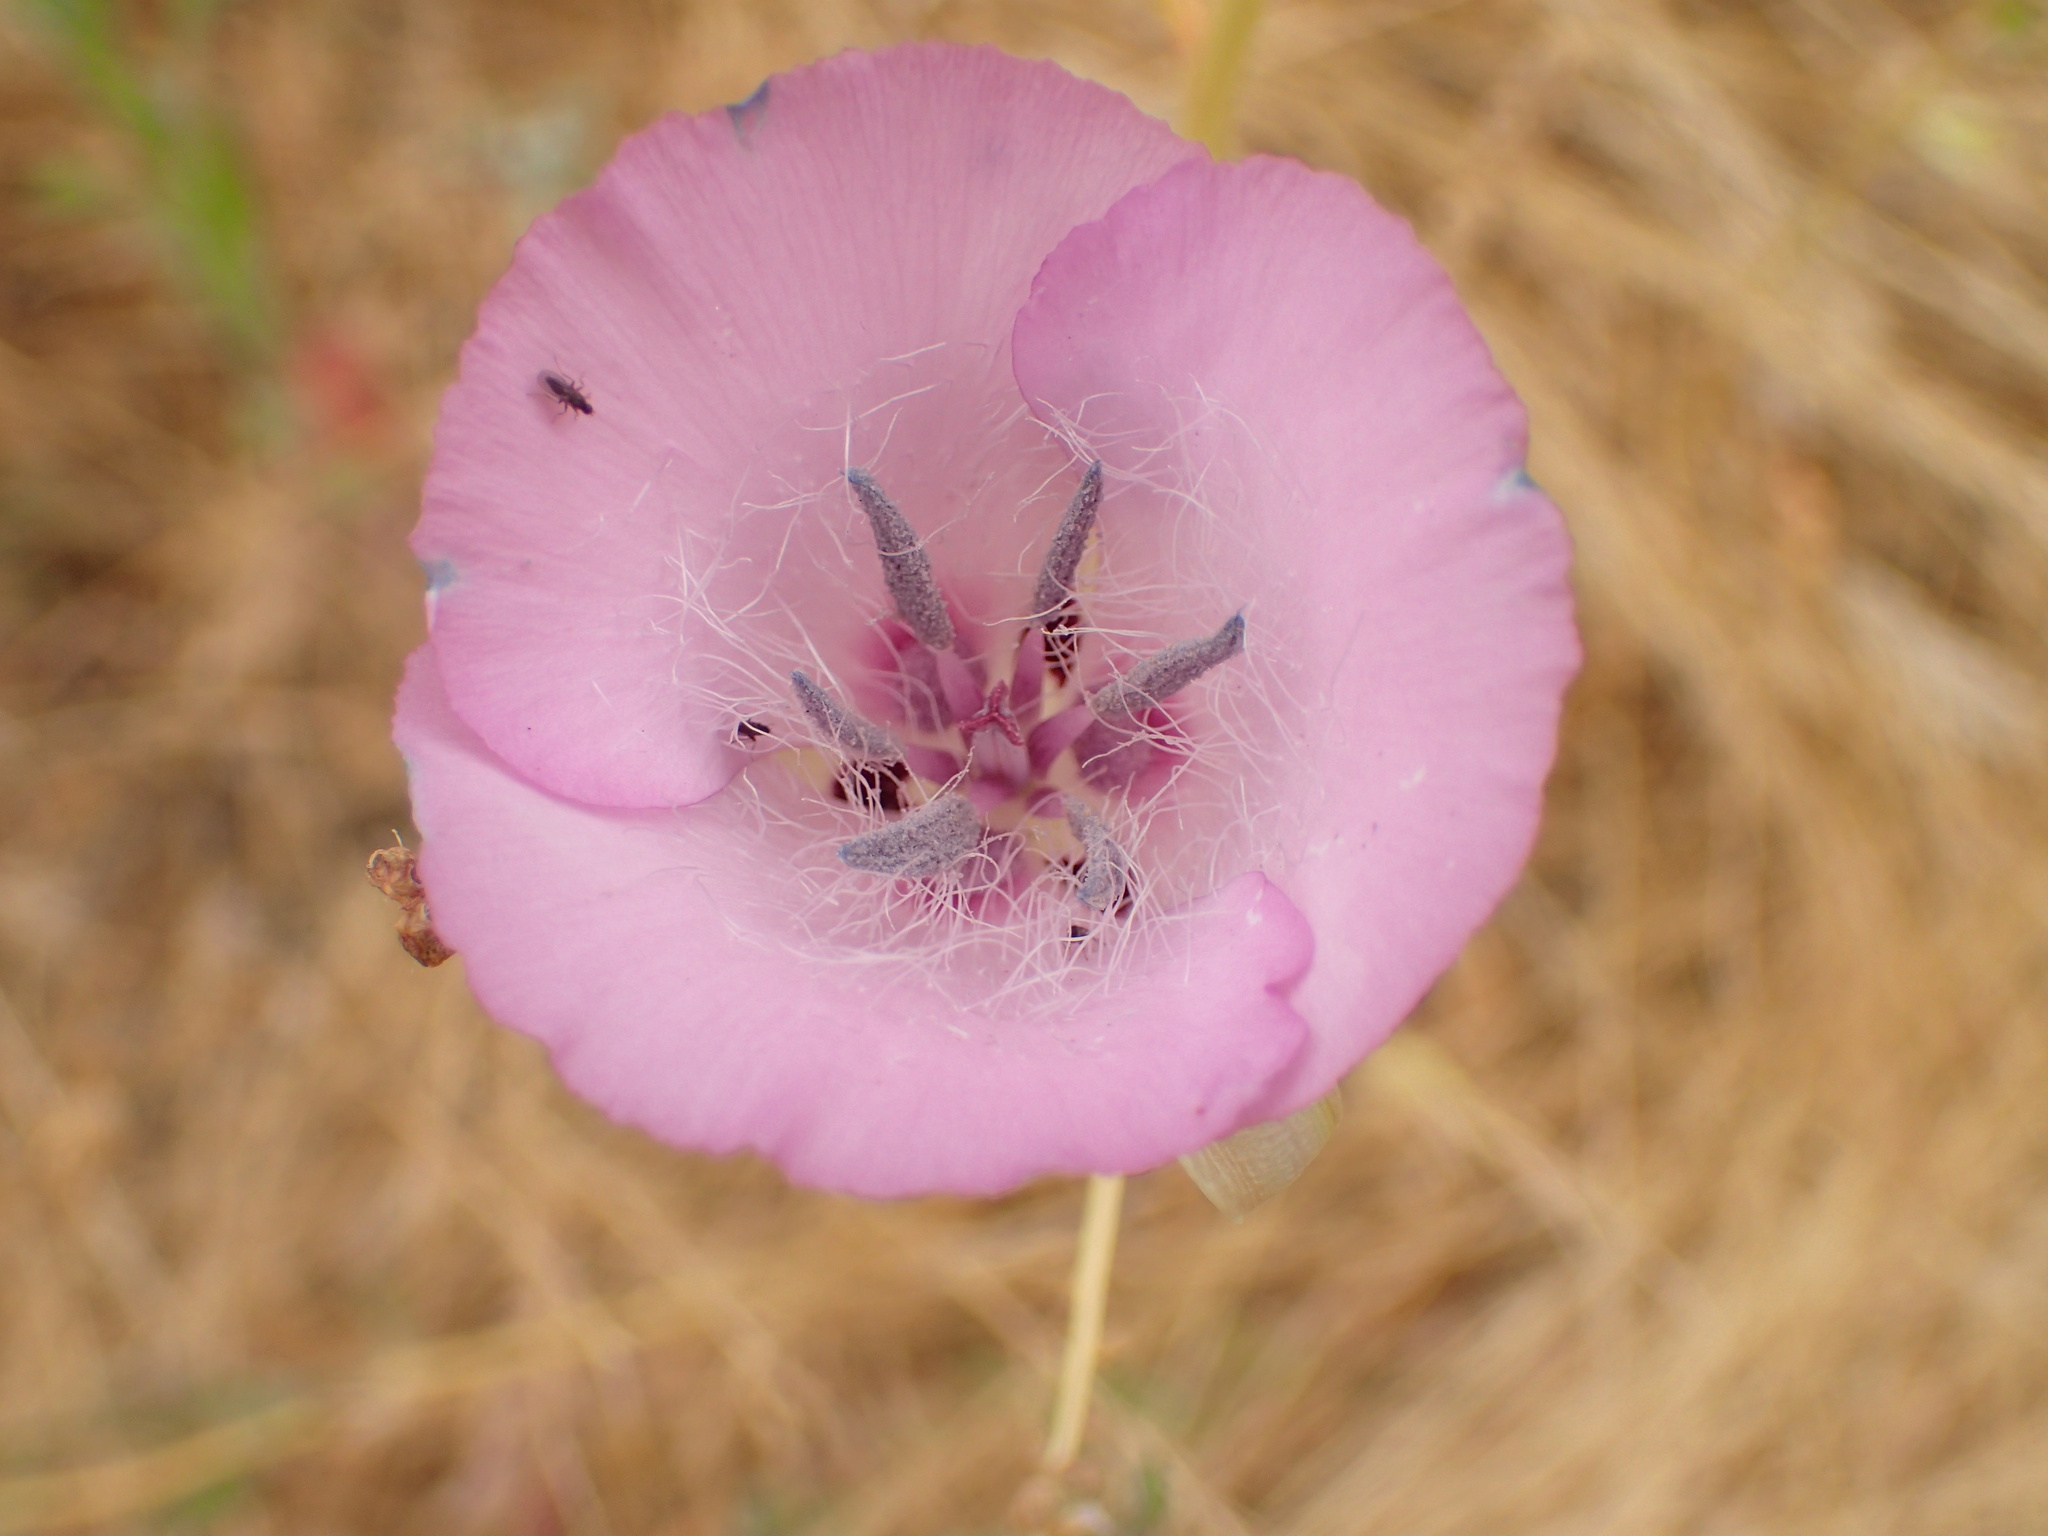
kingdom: Plantae
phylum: Tracheophyta
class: Liliopsida
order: Liliales
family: Liliaceae
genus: Calochortus
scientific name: Calochortus splendens
